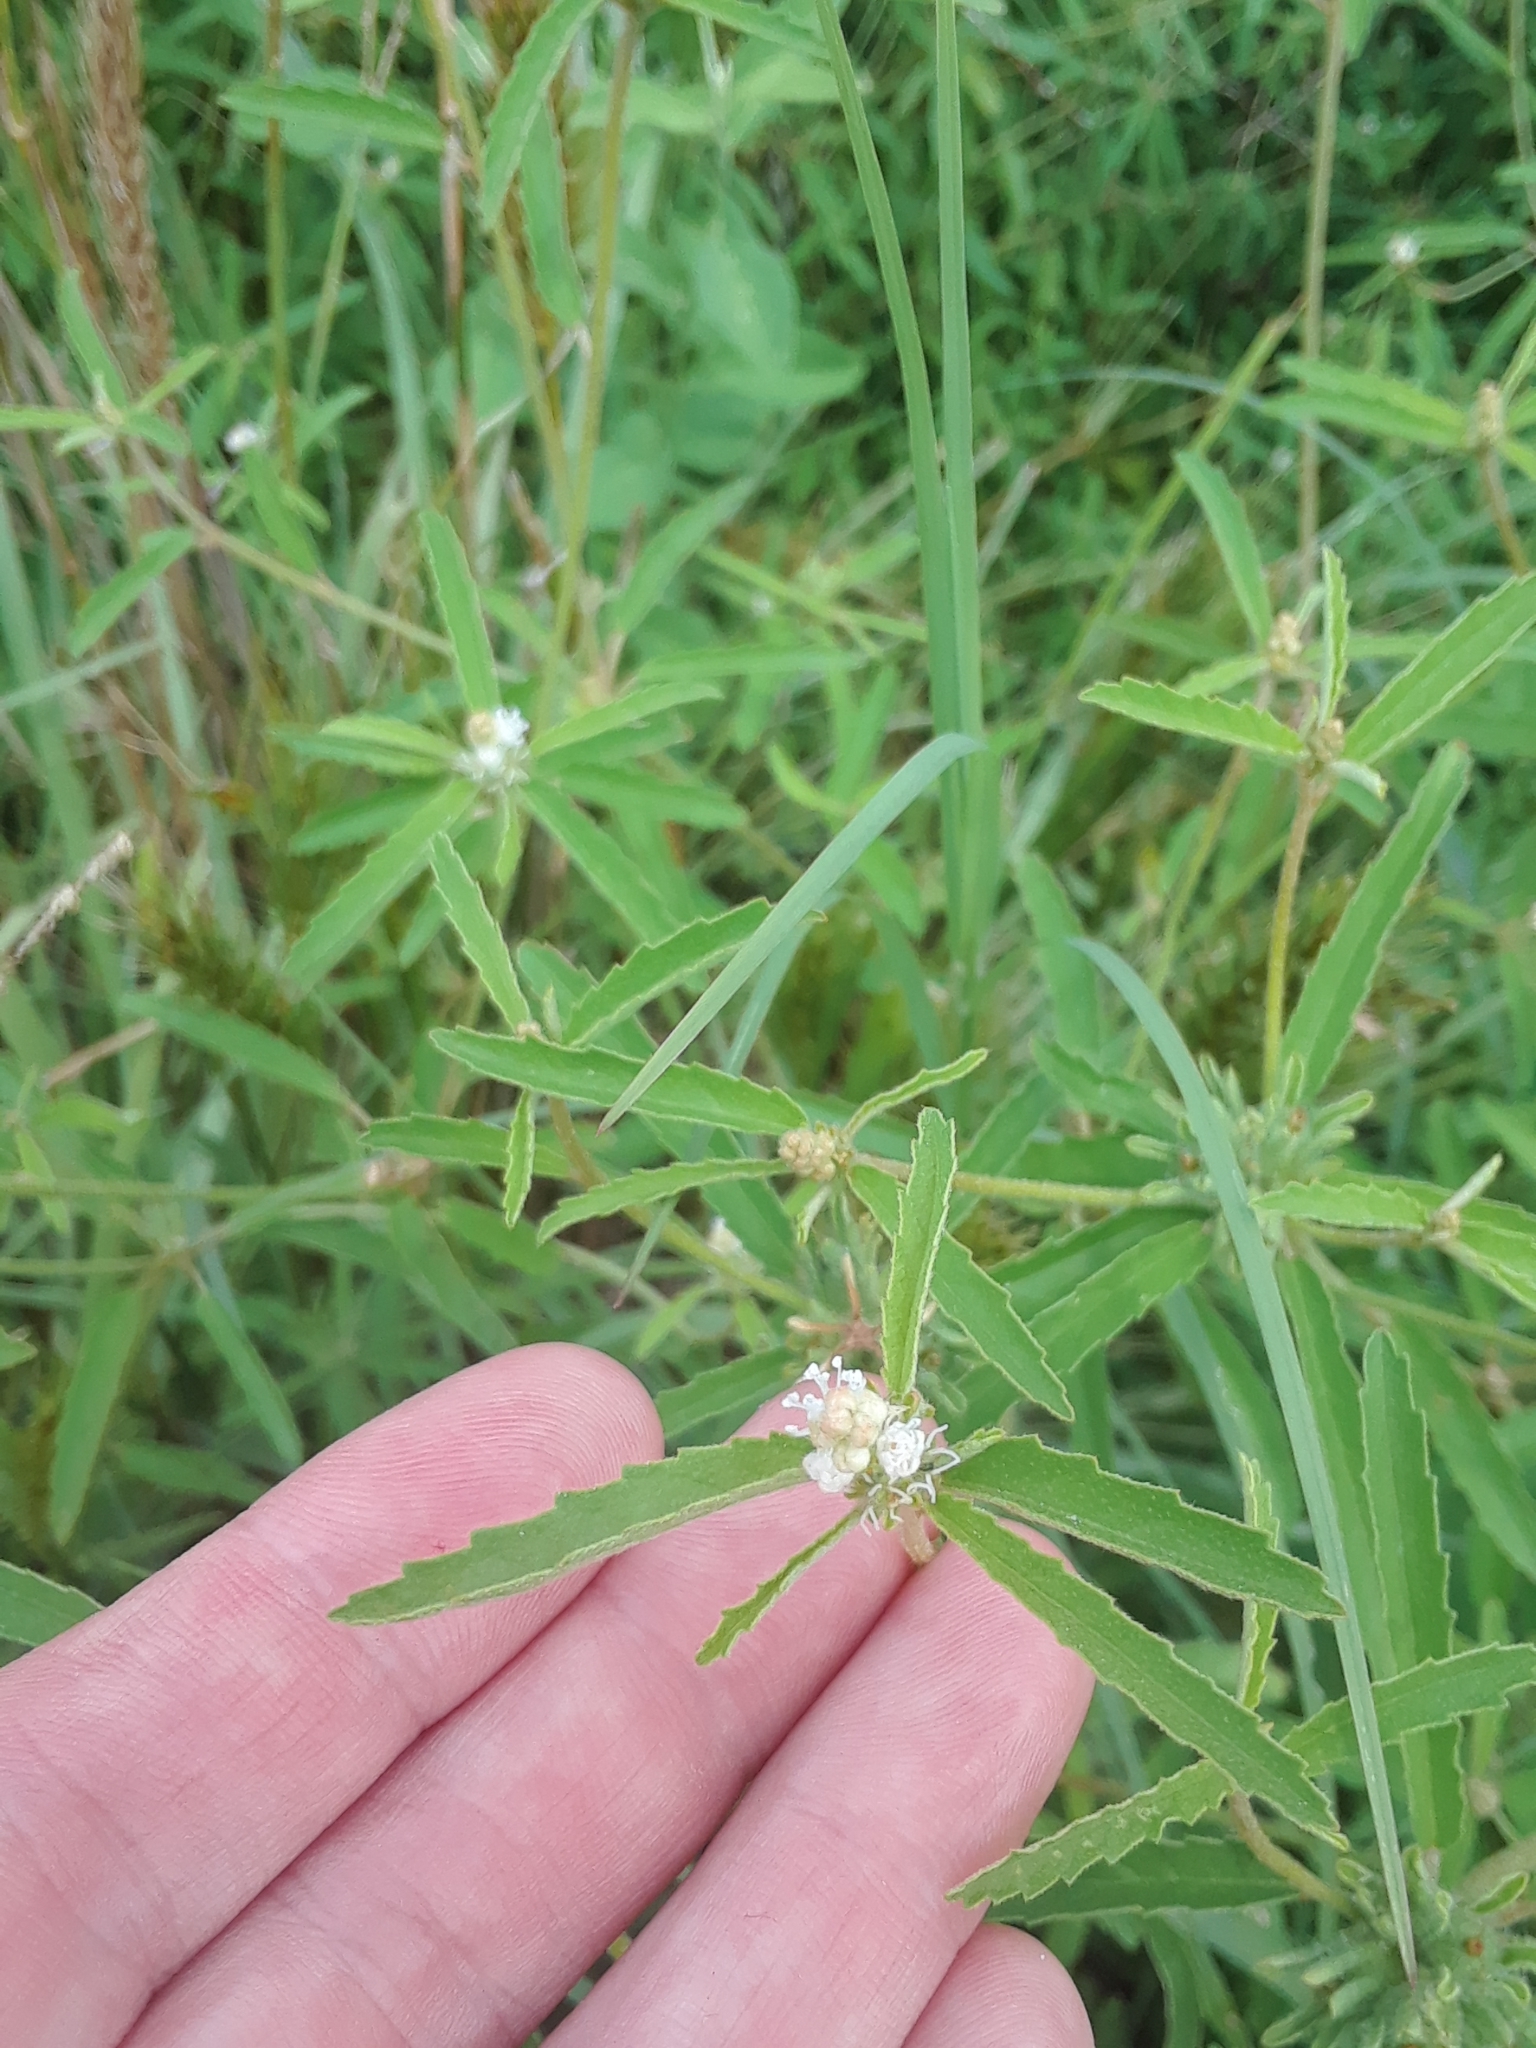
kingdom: Plantae
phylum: Tracheophyta
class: Magnoliopsida
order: Malpighiales
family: Euphorbiaceae
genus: Croton
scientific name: Croton glandulosus
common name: Tropic croton
